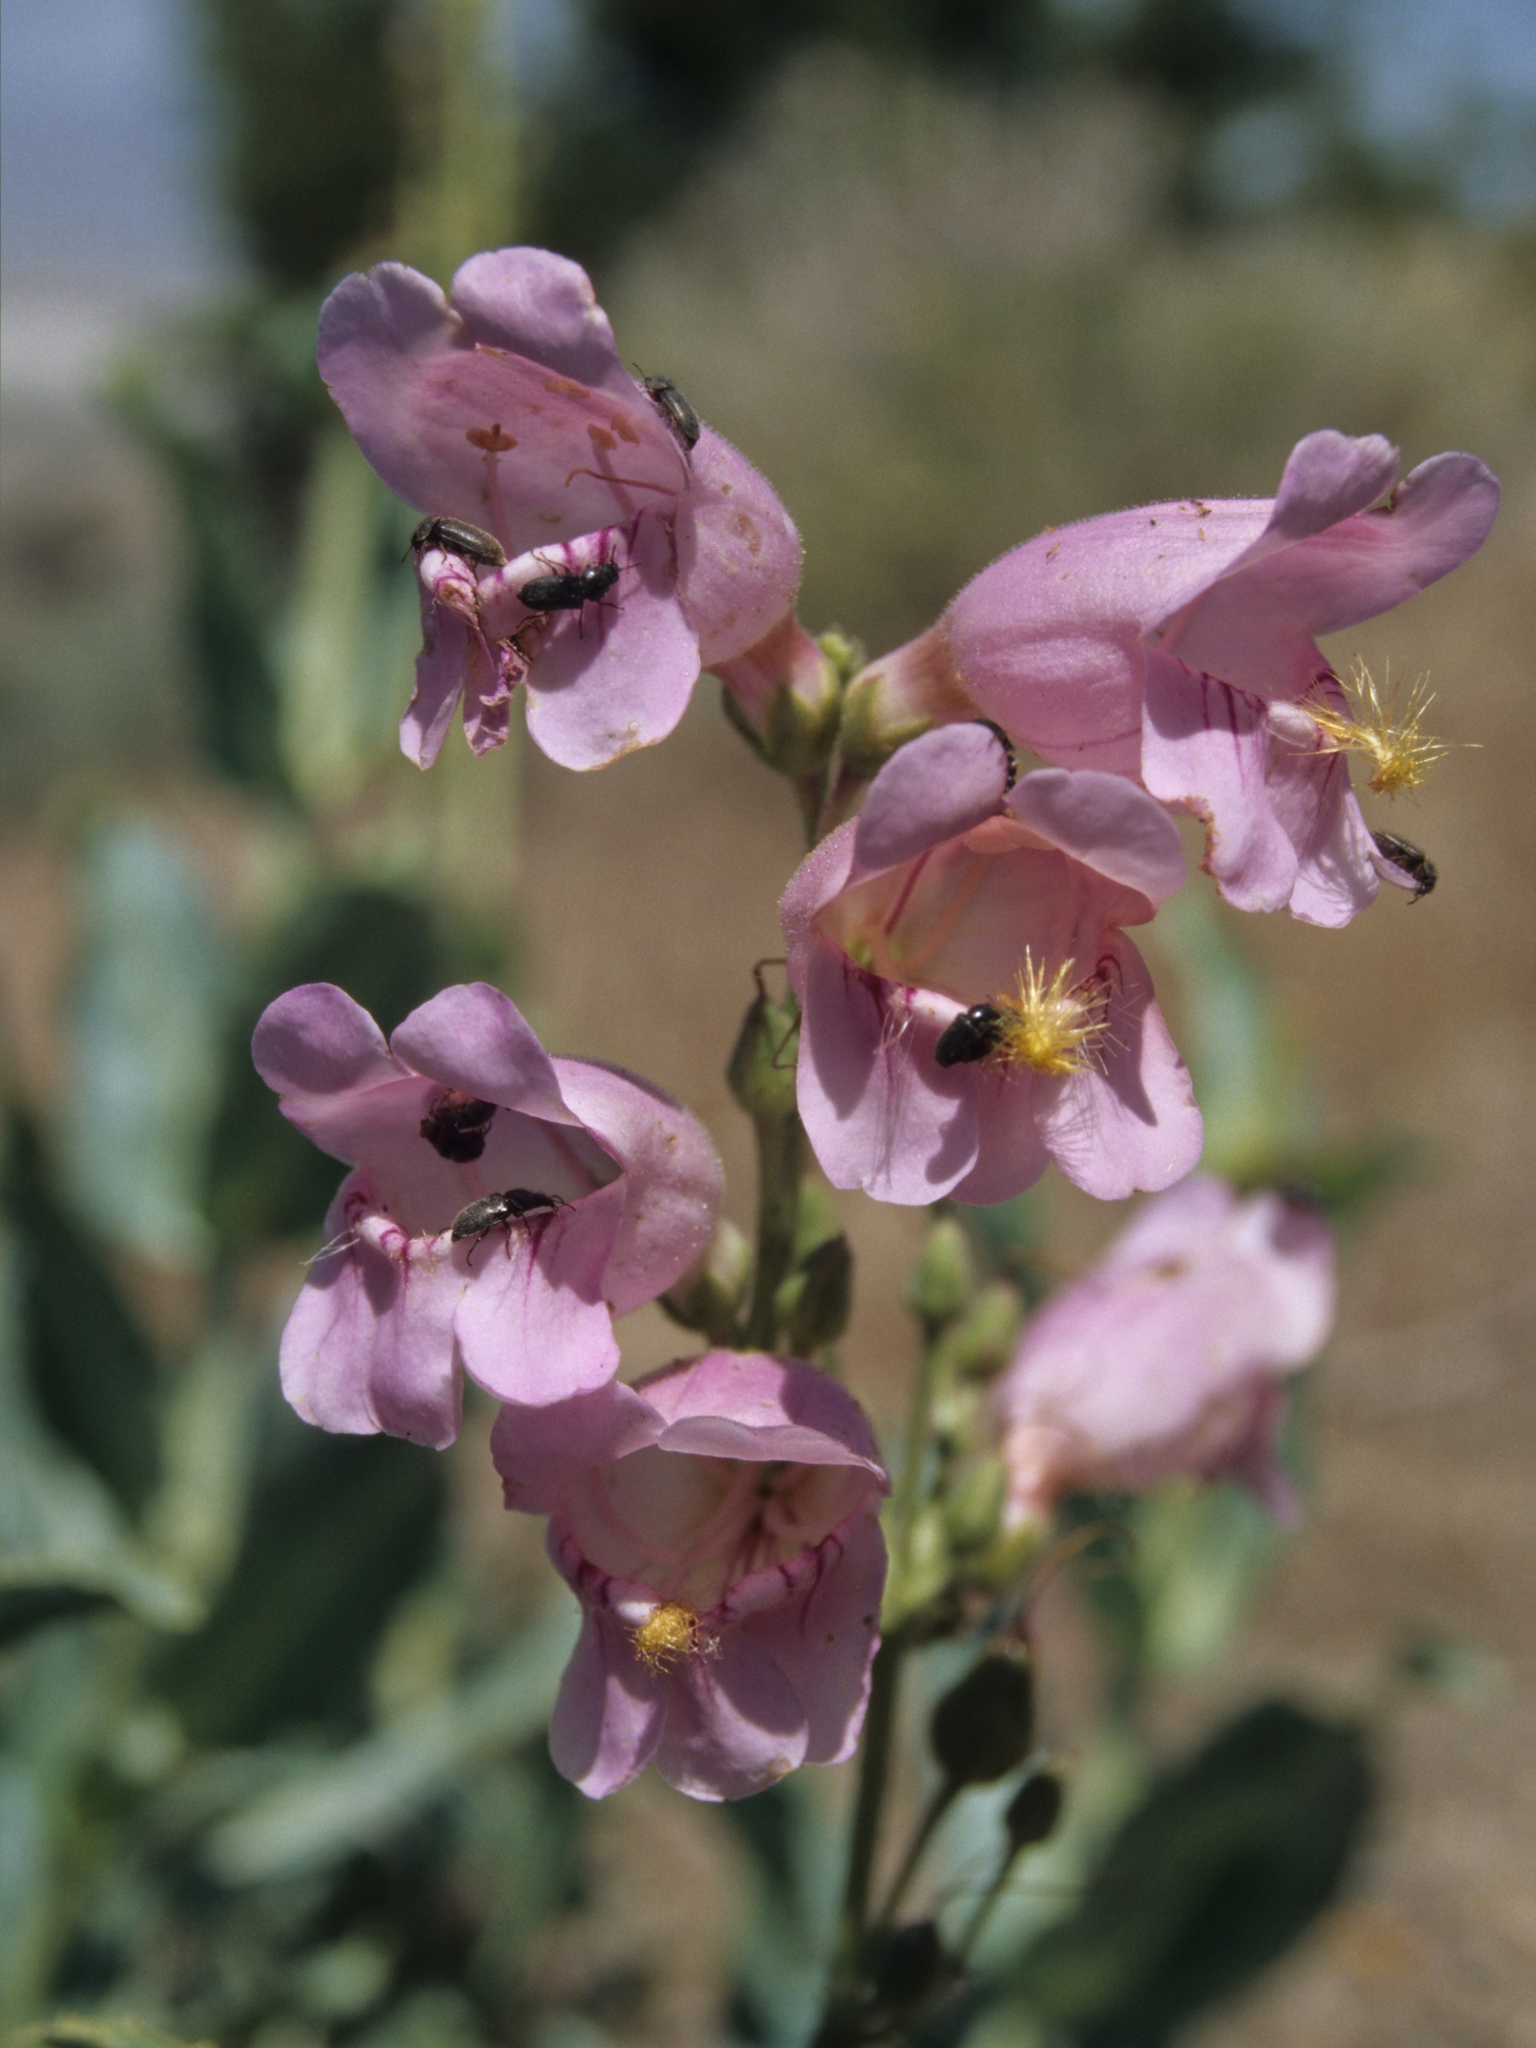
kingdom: Plantae
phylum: Tracheophyta
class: Magnoliopsida
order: Lamiales
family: Plantaginaceae
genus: Penstemon
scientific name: Penstemon palmeri
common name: Palmer penstemon
